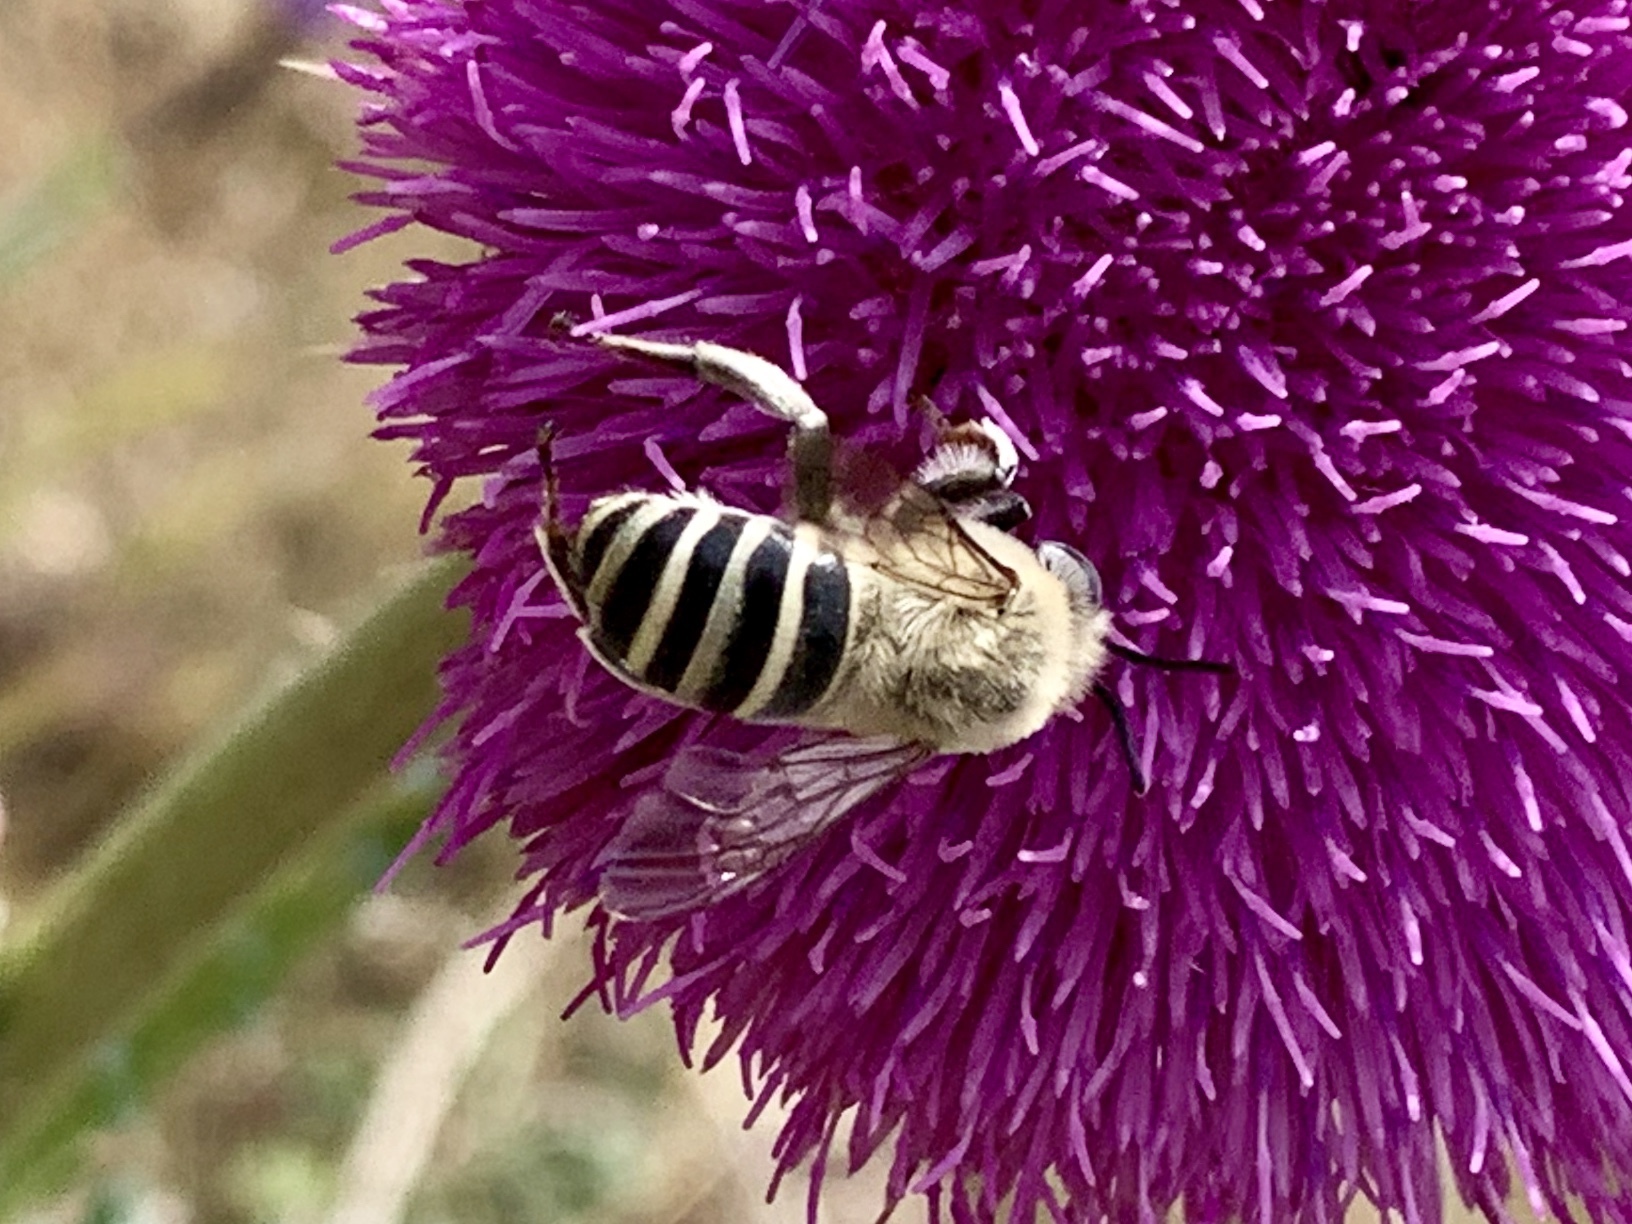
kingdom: Animalia
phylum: Arthropoda
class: Insecta
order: Hymenoptera
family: Apidae
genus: Anthophora
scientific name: Anthophora montana
